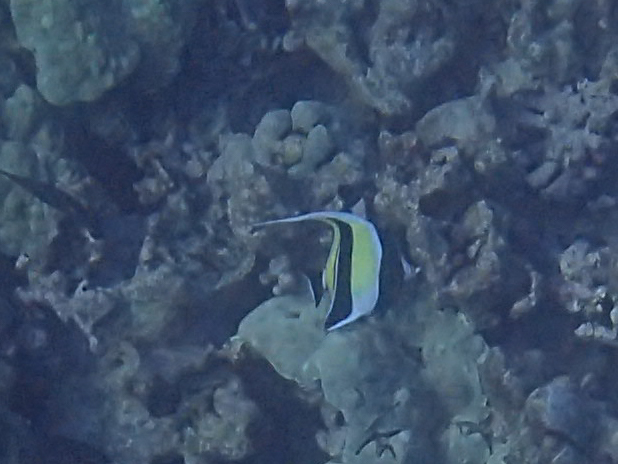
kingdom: Animalia
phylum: Chordata
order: Perciformes
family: Zanclidae
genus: Zanclus
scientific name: Zanclus cornutus
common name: Moorish idol
